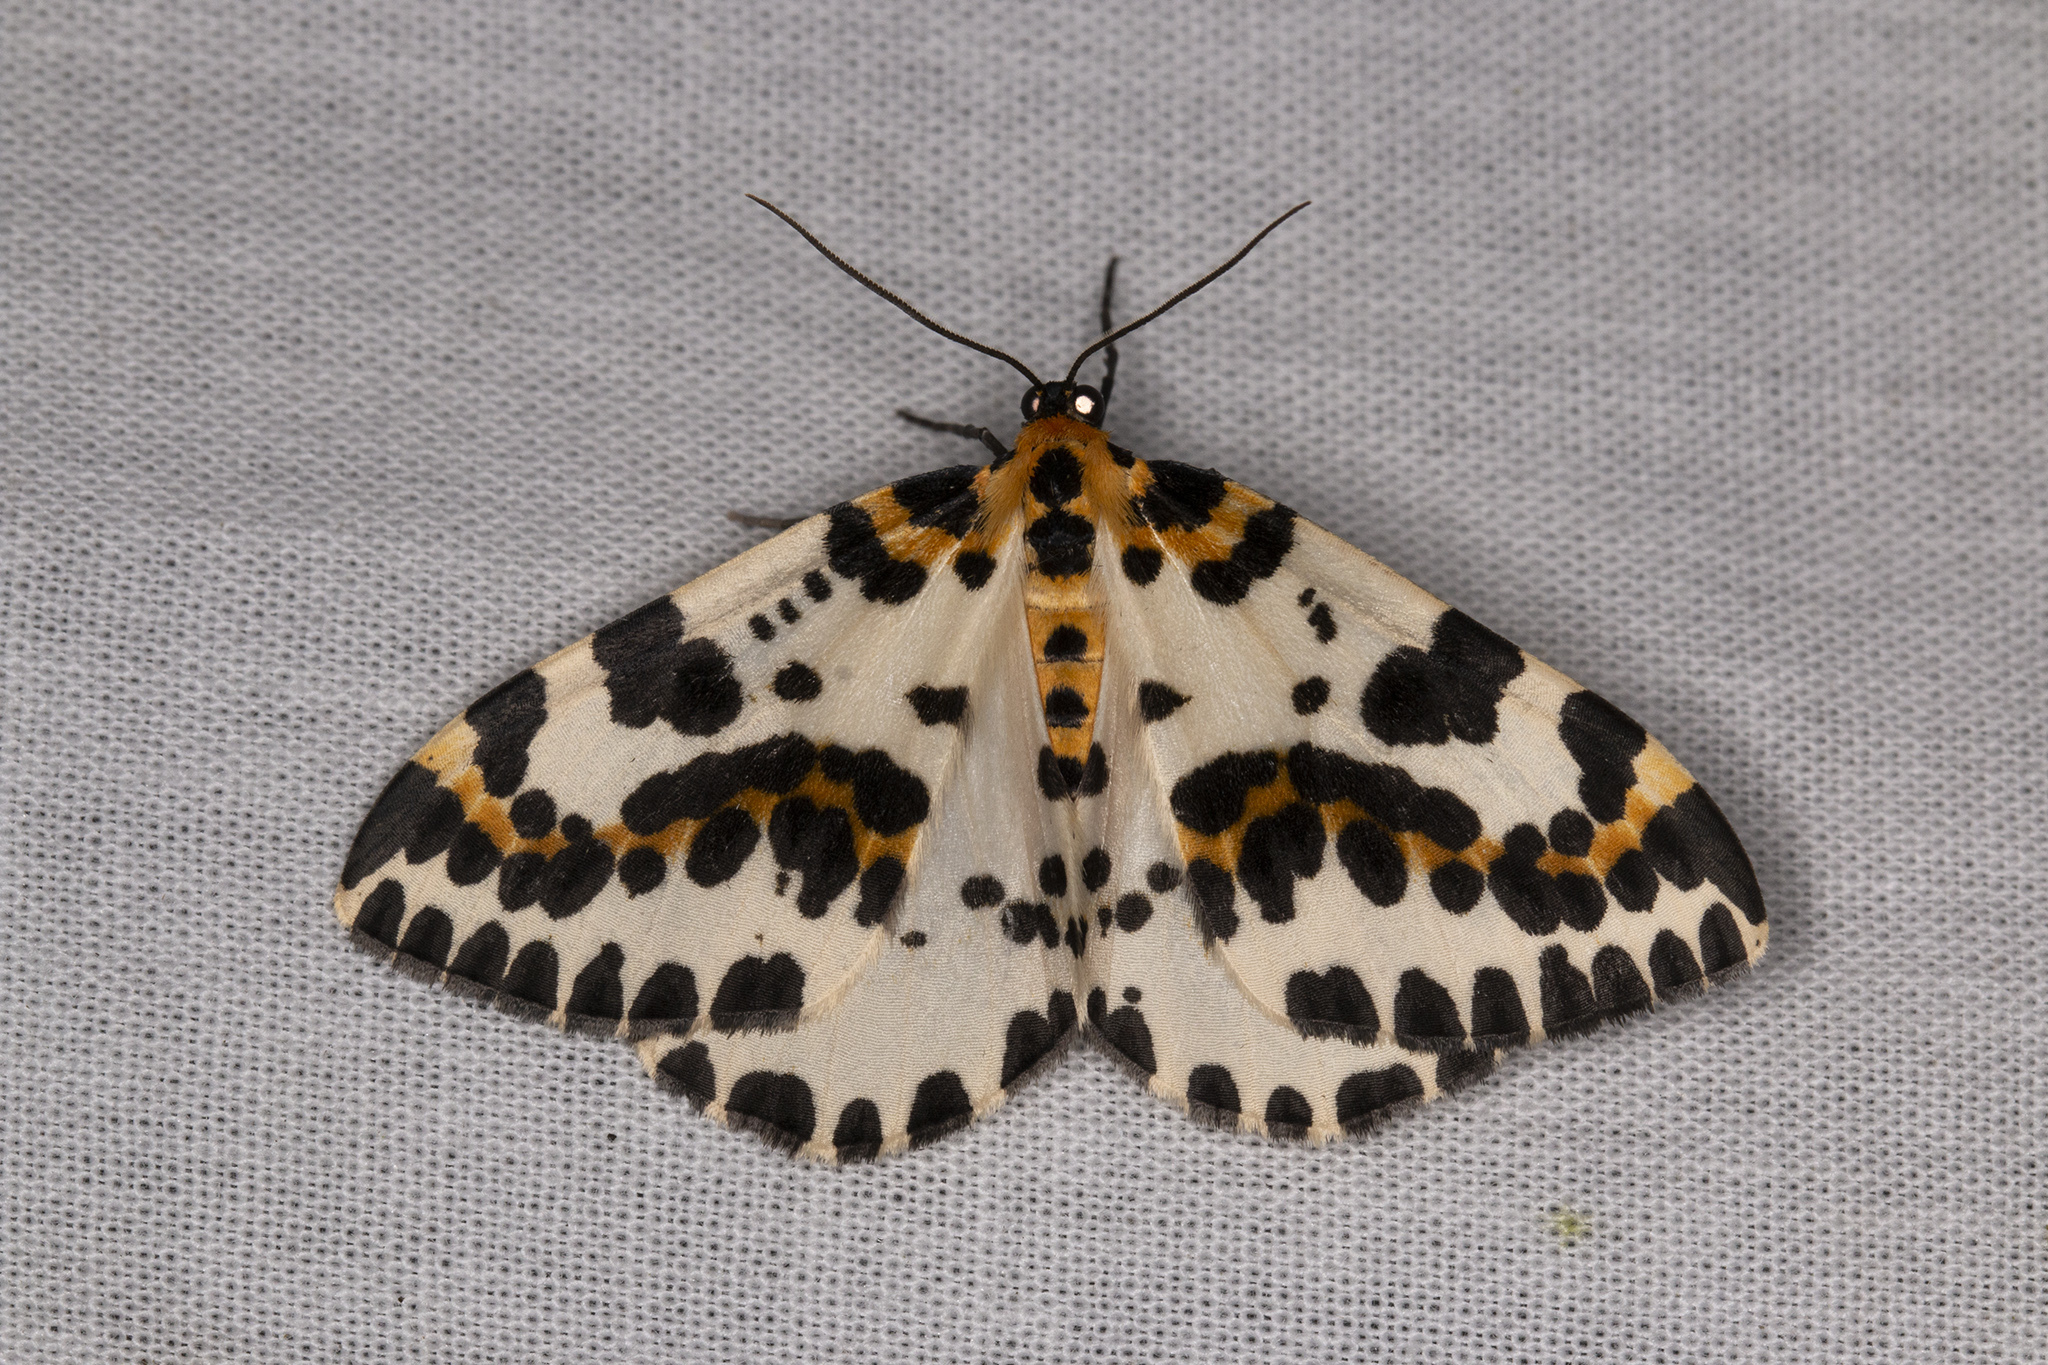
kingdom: Animalia
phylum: Arthropoda
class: Insecta
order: Lepidoptera
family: Geometridae
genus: Abraxas
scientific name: Abraxas grossulariata
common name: Magpie
